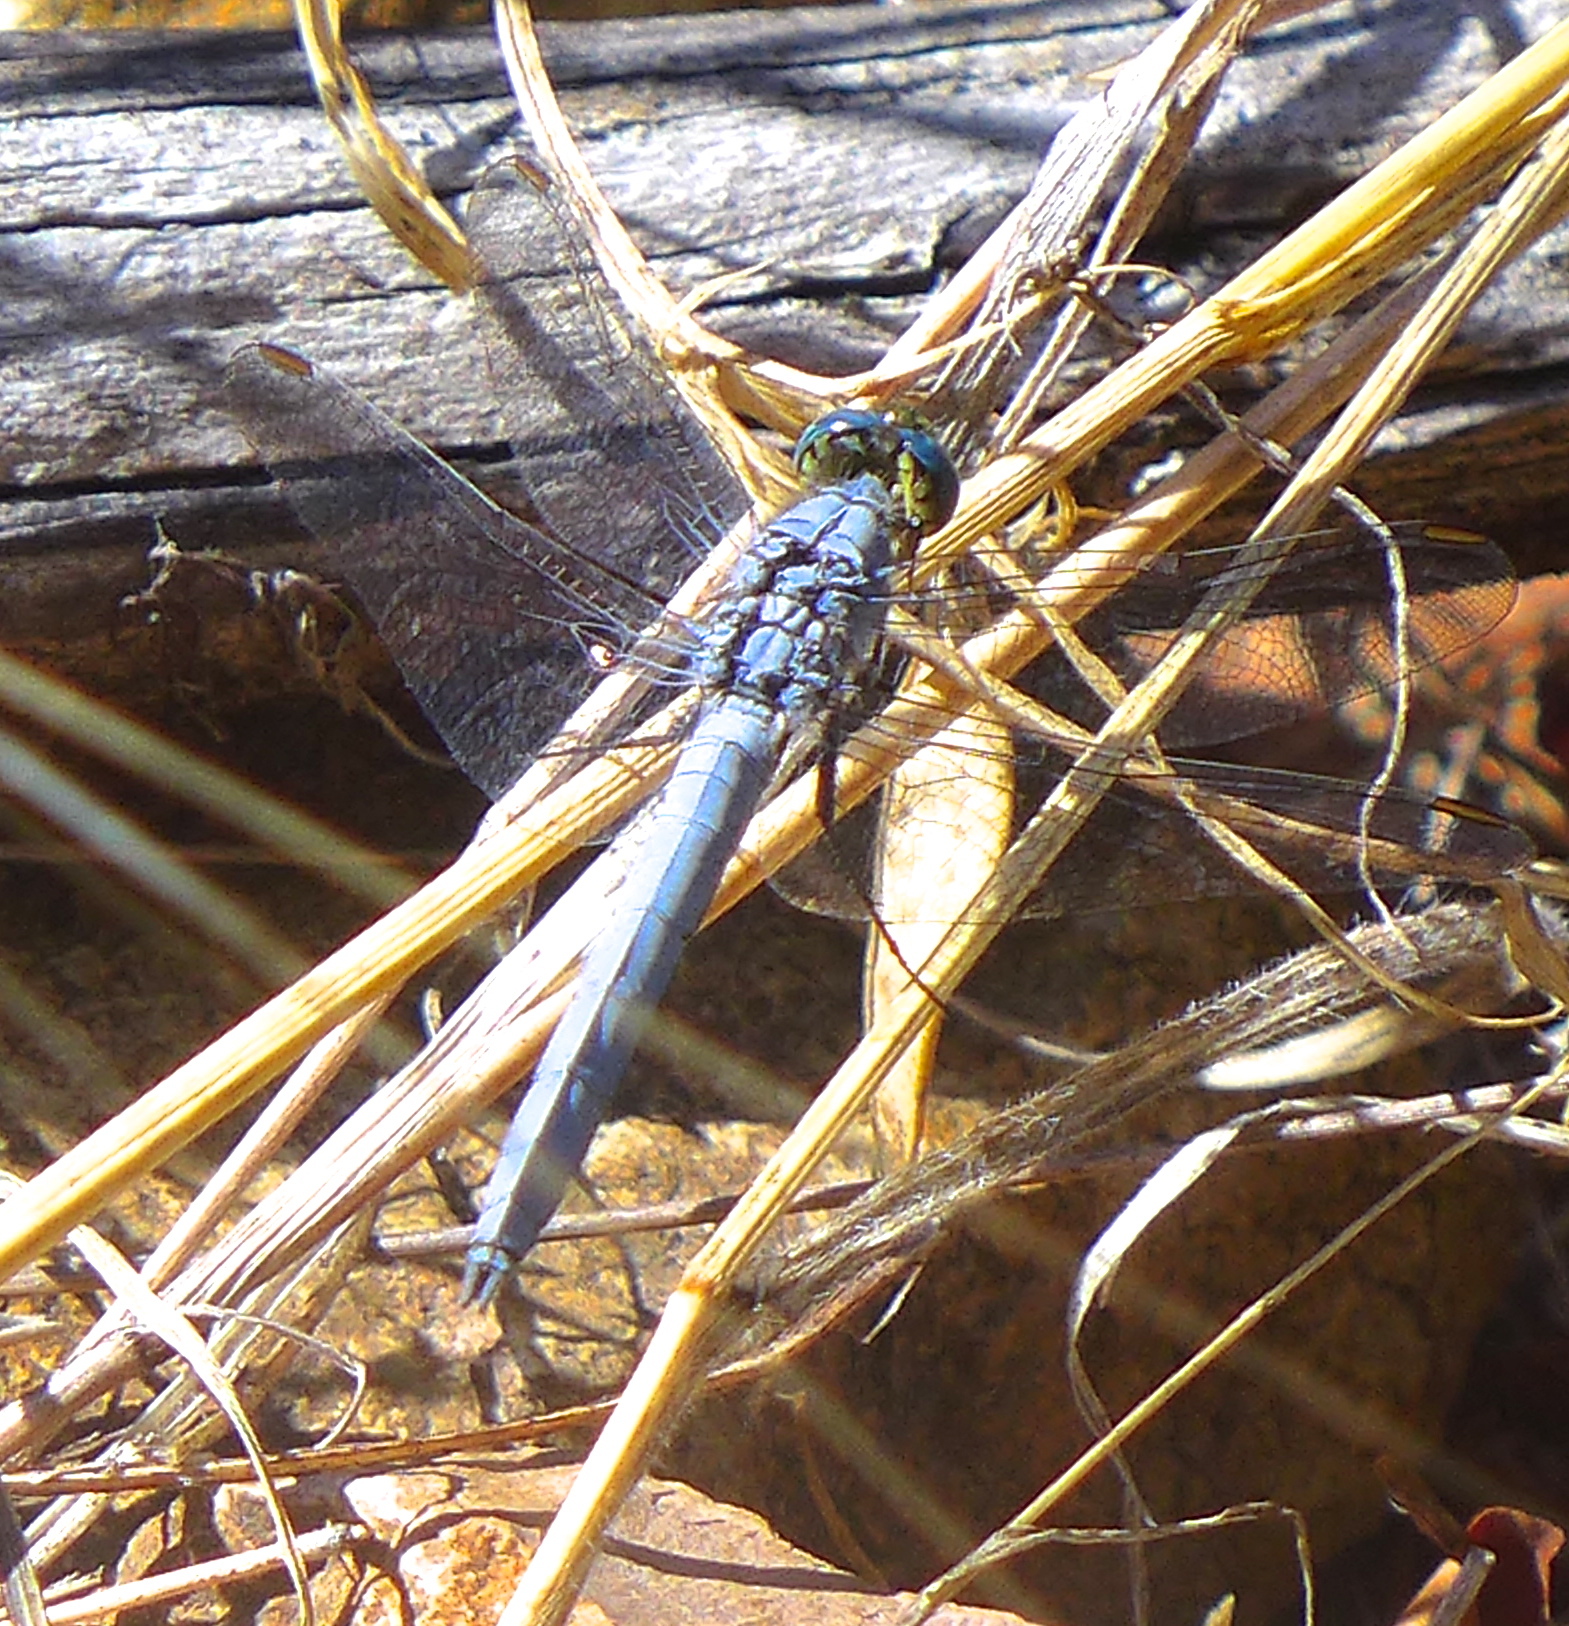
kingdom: Animalia
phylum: Arthropoda
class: Insecta
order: Odonata
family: Libellulidae
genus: Erythemis
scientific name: Erythemis collocata
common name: Western pondhawk
